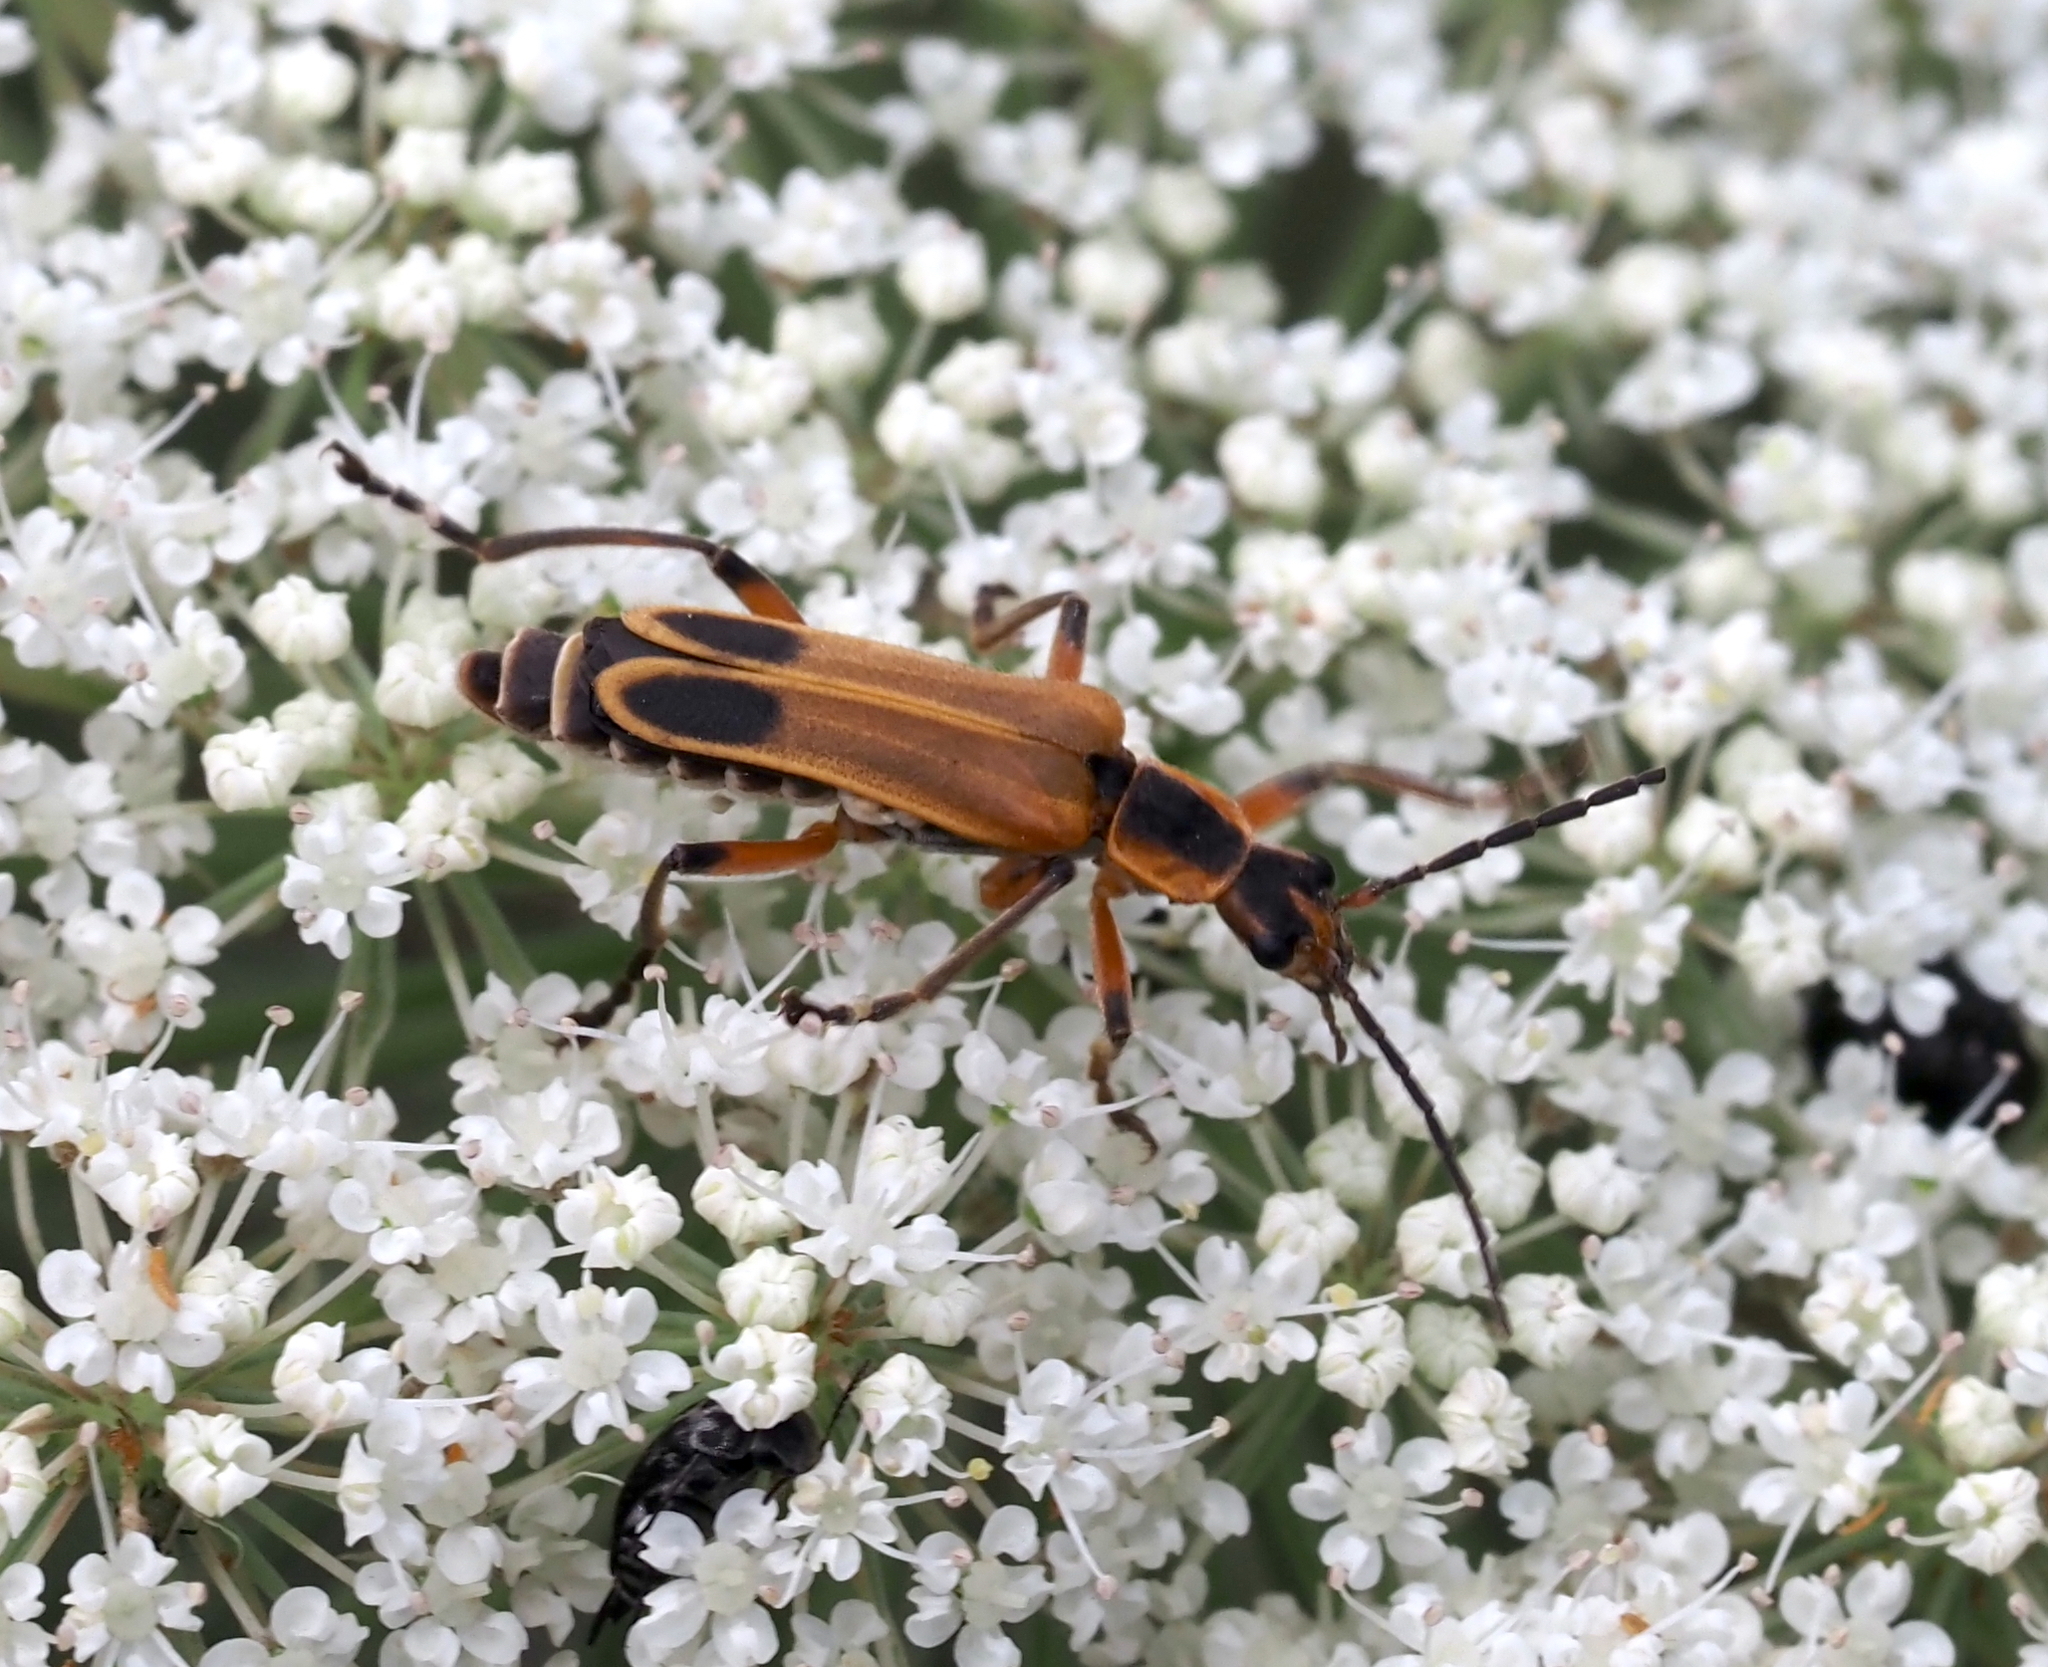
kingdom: Animalia
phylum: Arthropoda
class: Insecta
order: Coleoptera
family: Cantharidae
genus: Chauliognathus
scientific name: Chauliognathus marginatus
